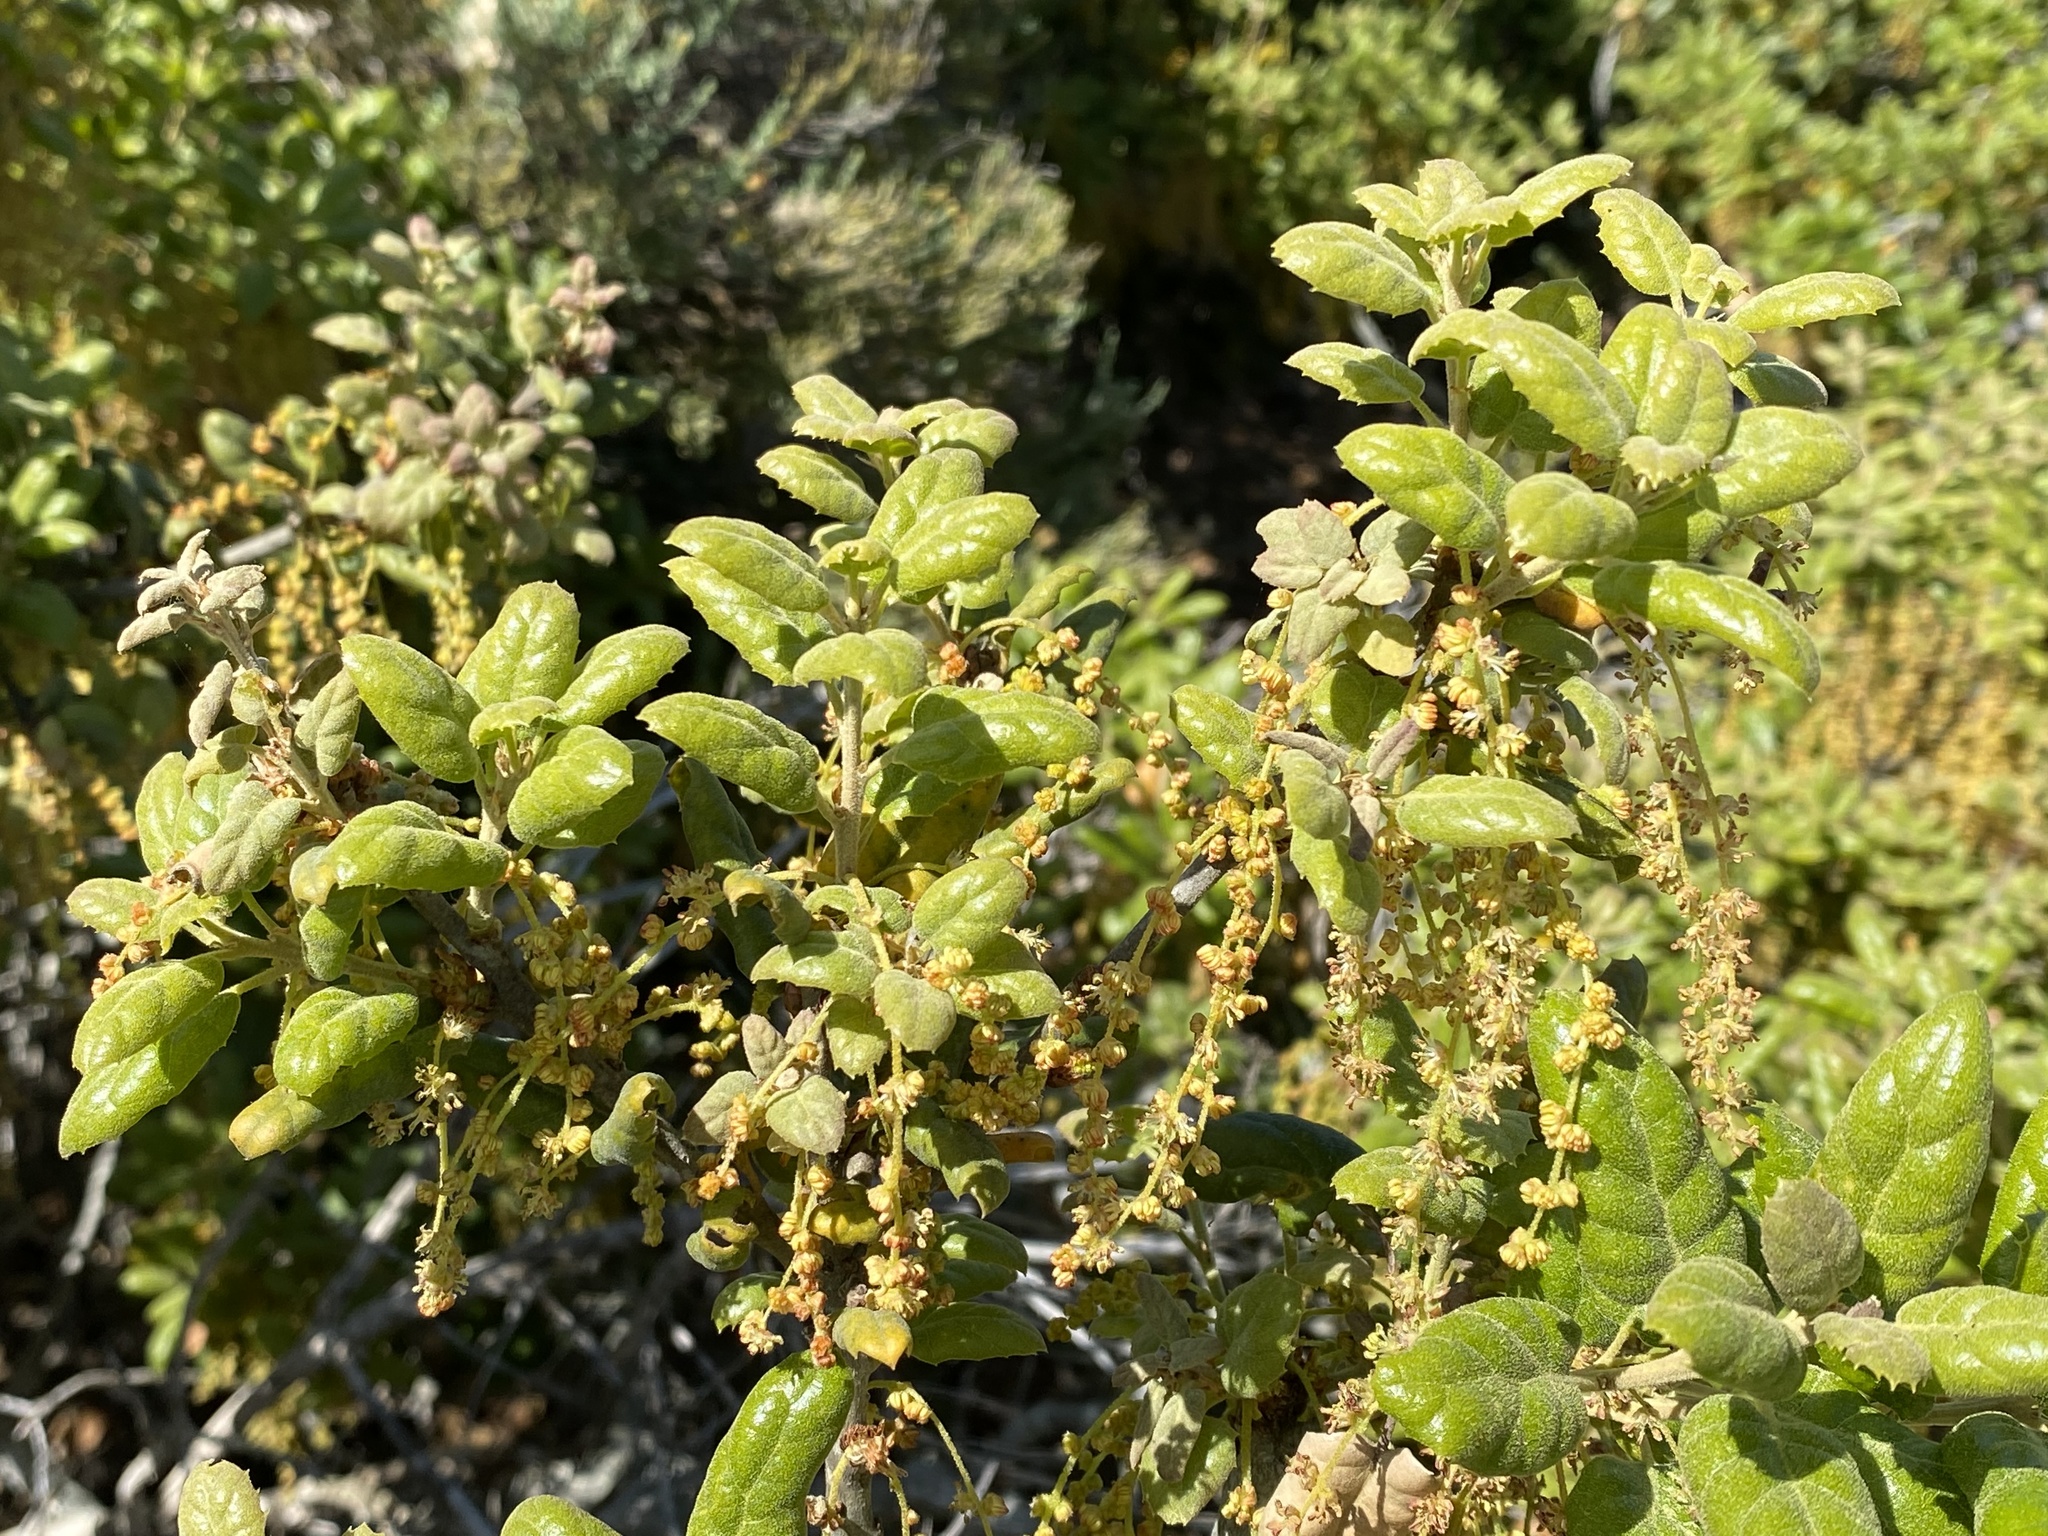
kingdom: Plantae
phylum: Tracheophyta
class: Magnoliopsida
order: Fagales
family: Fagaceae
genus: Quercus
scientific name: Quercus agrifolia
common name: California live oak
